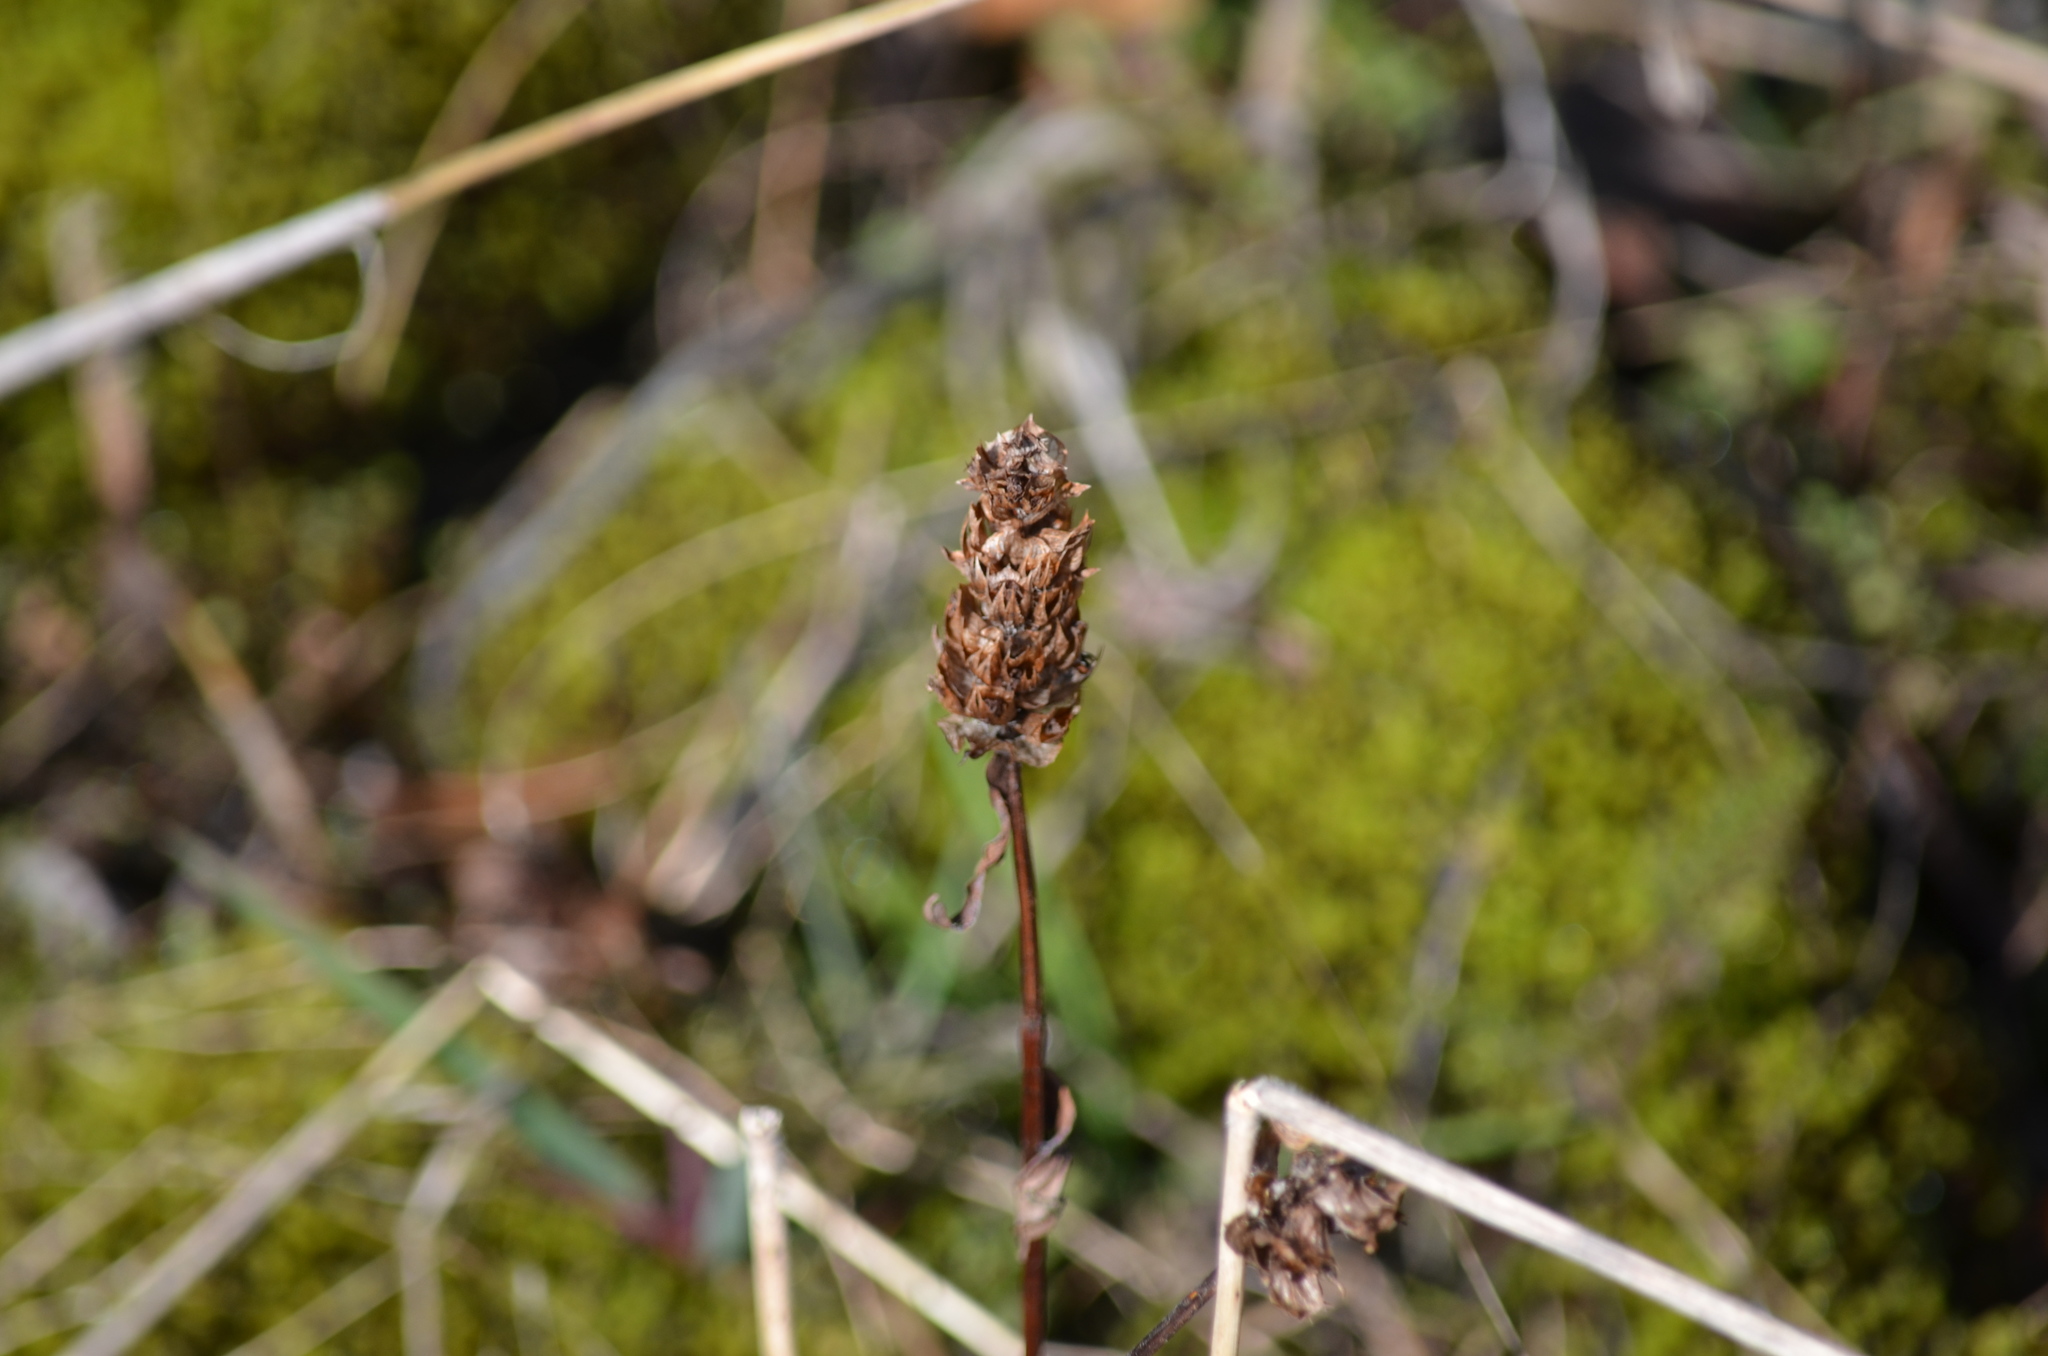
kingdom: Plantae
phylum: Tracheophyta
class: Magnoliopsida
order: Lamiales
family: Lamiaceae
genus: Prunella
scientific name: Prunella vulgaris
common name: Heal-all
